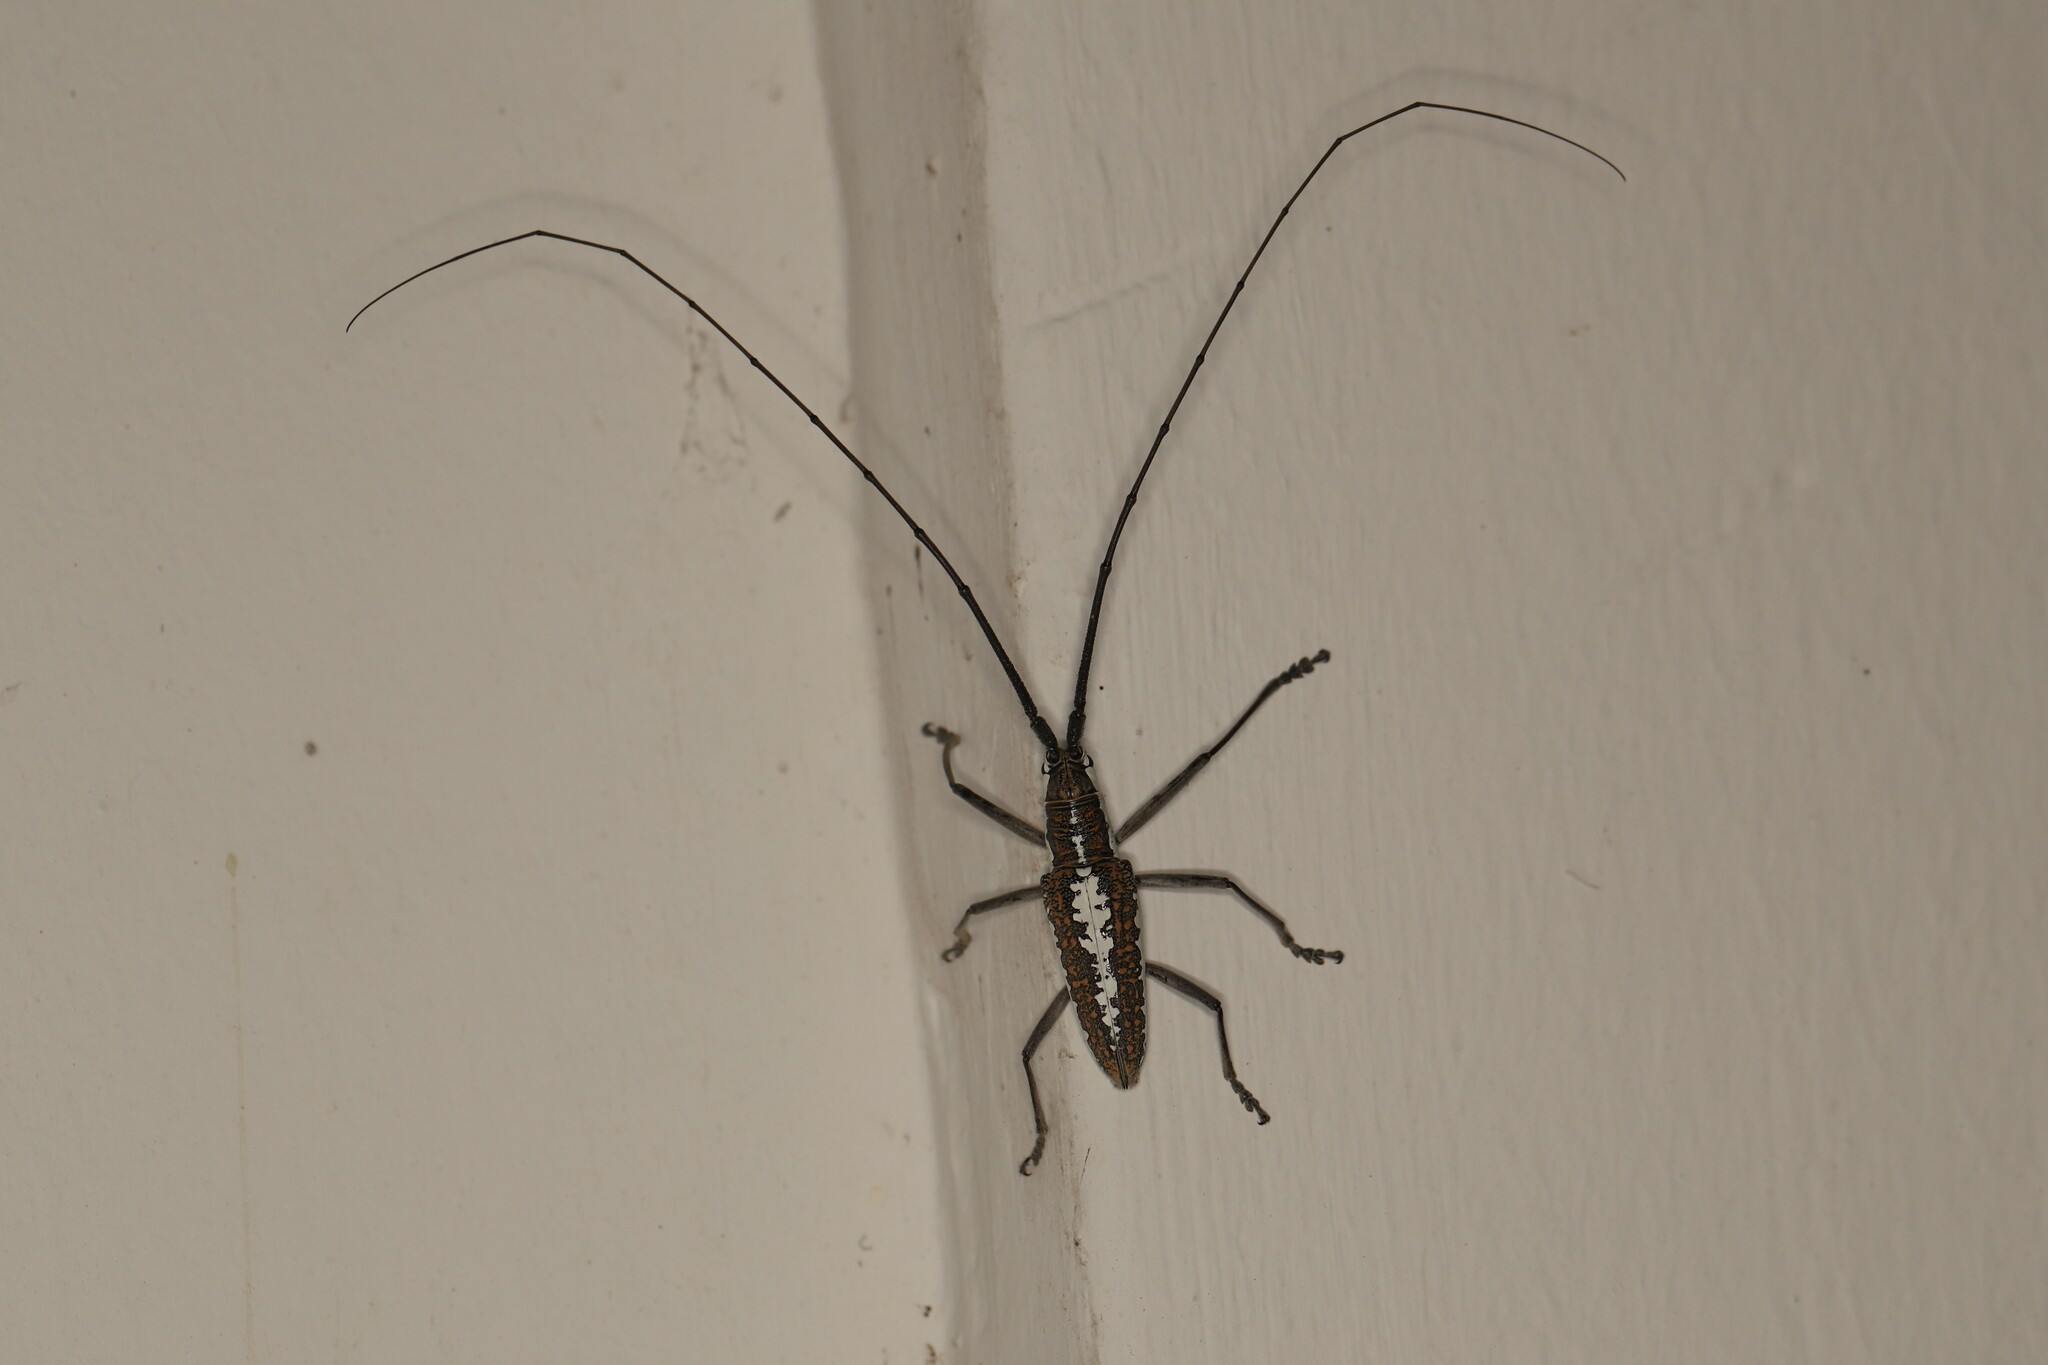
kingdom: Animalia
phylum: Arthropoda
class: Insecta
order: Coleoptera
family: Cerambycidae
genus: Neoptychodes
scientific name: Neoptychodes trilineatus
